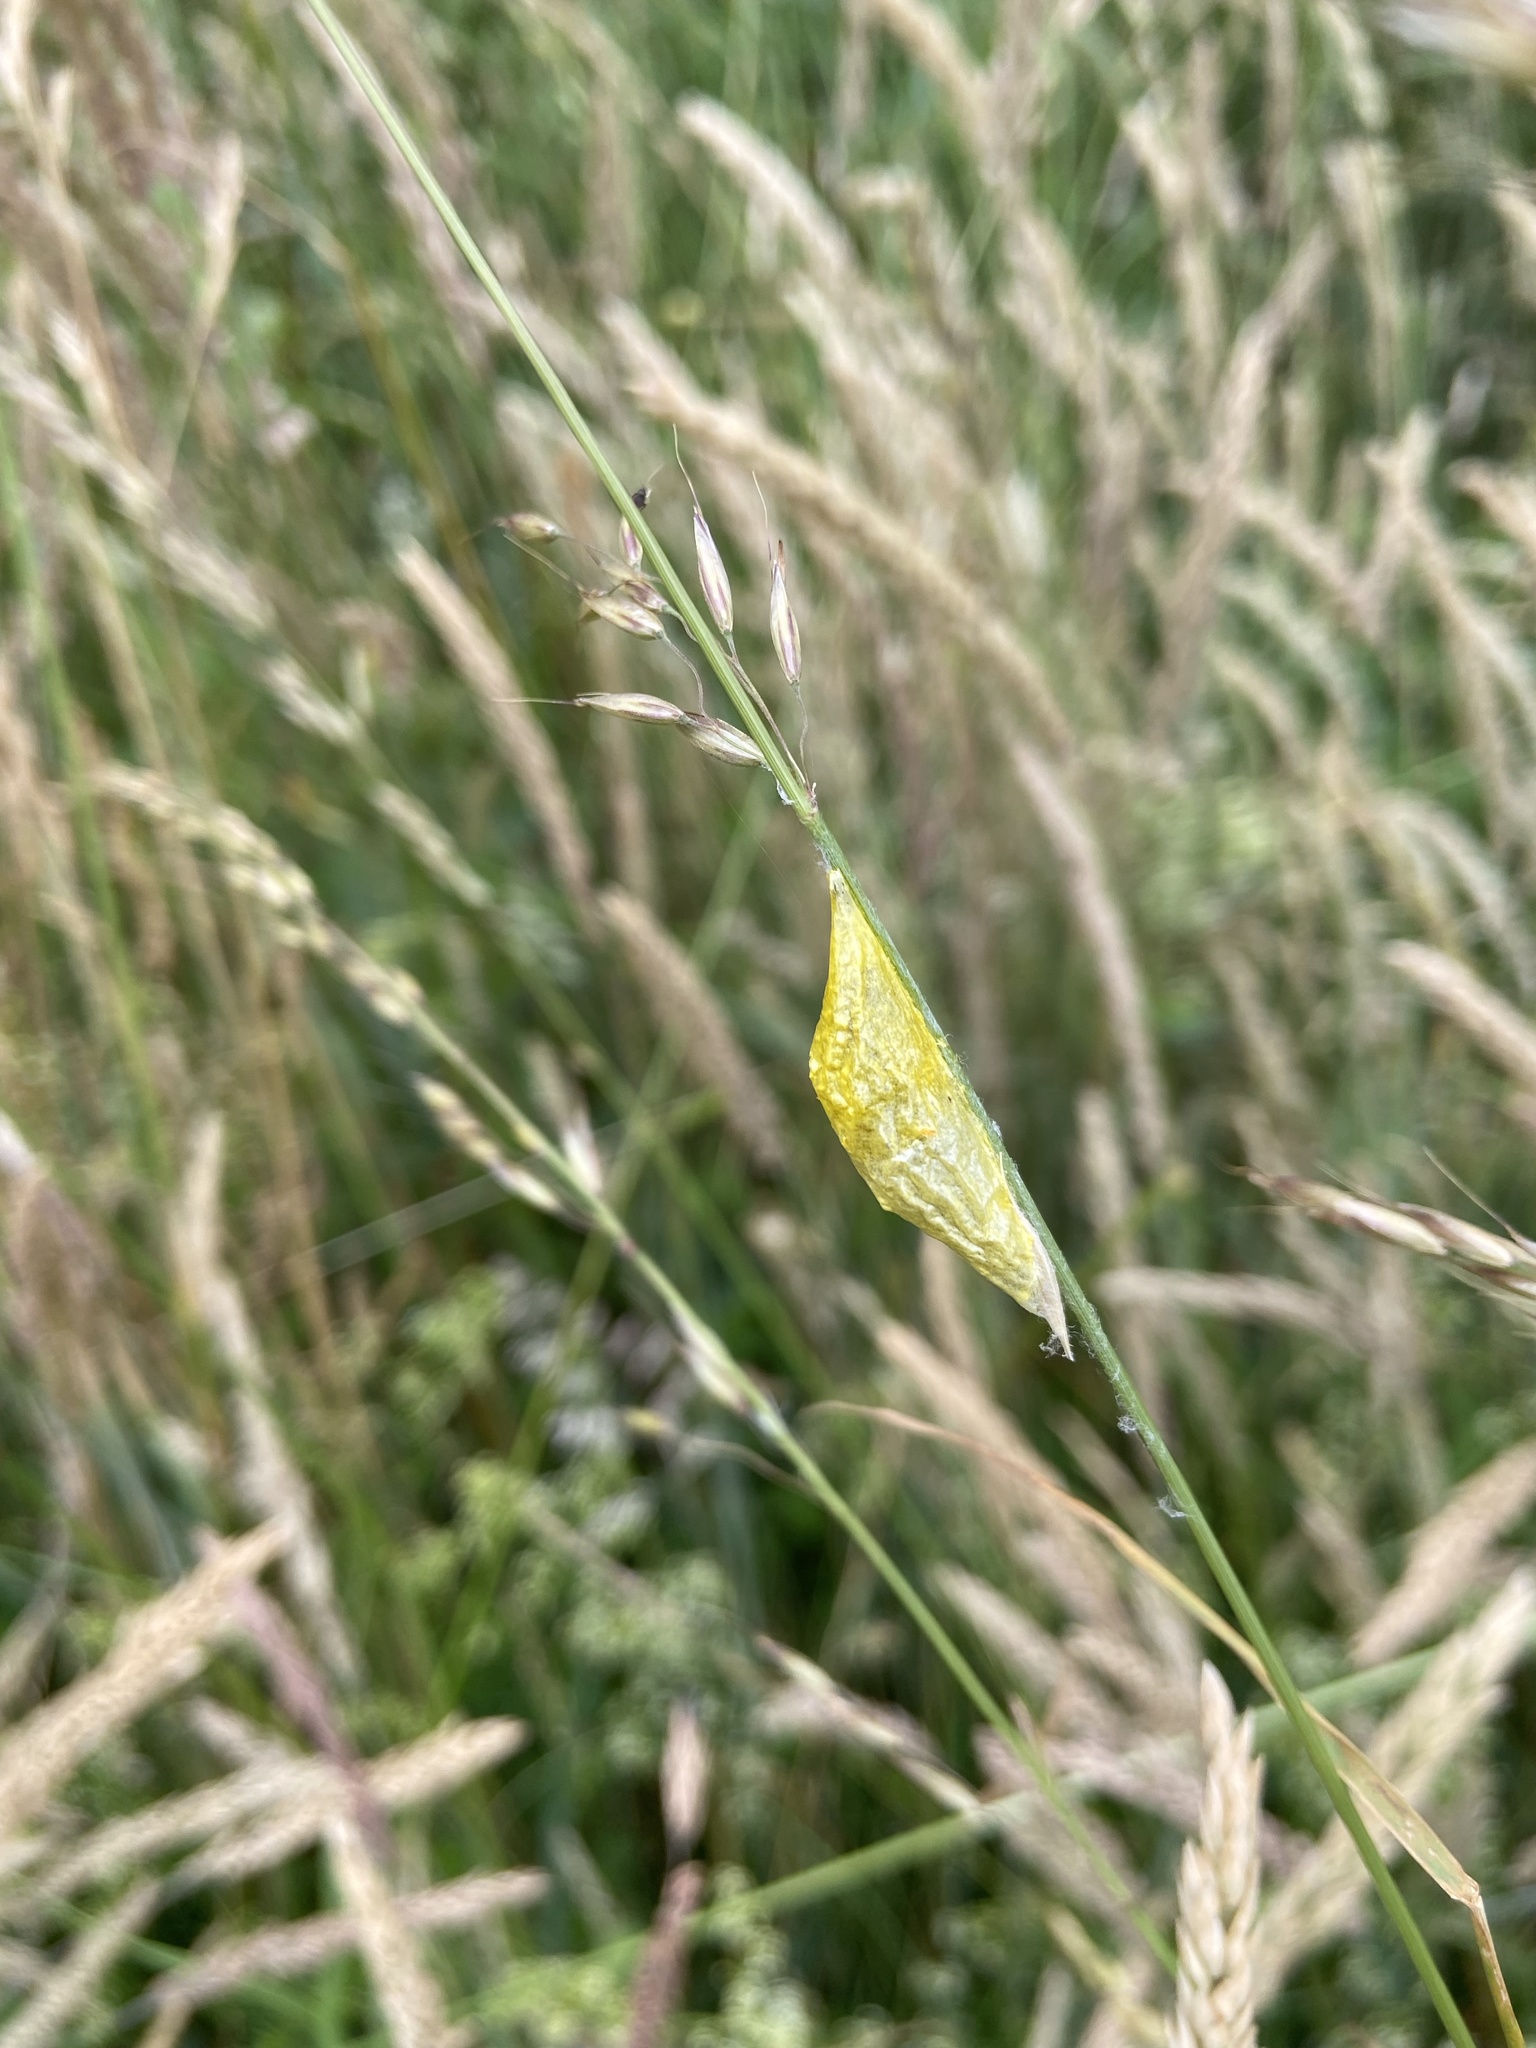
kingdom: Animalia
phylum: Arthropoda
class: Insecta
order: Lepidoptera
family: Zygaenidae
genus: Zygaena
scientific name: Zygaena lonicerae
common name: Narrow-bordered five-spot burnet
